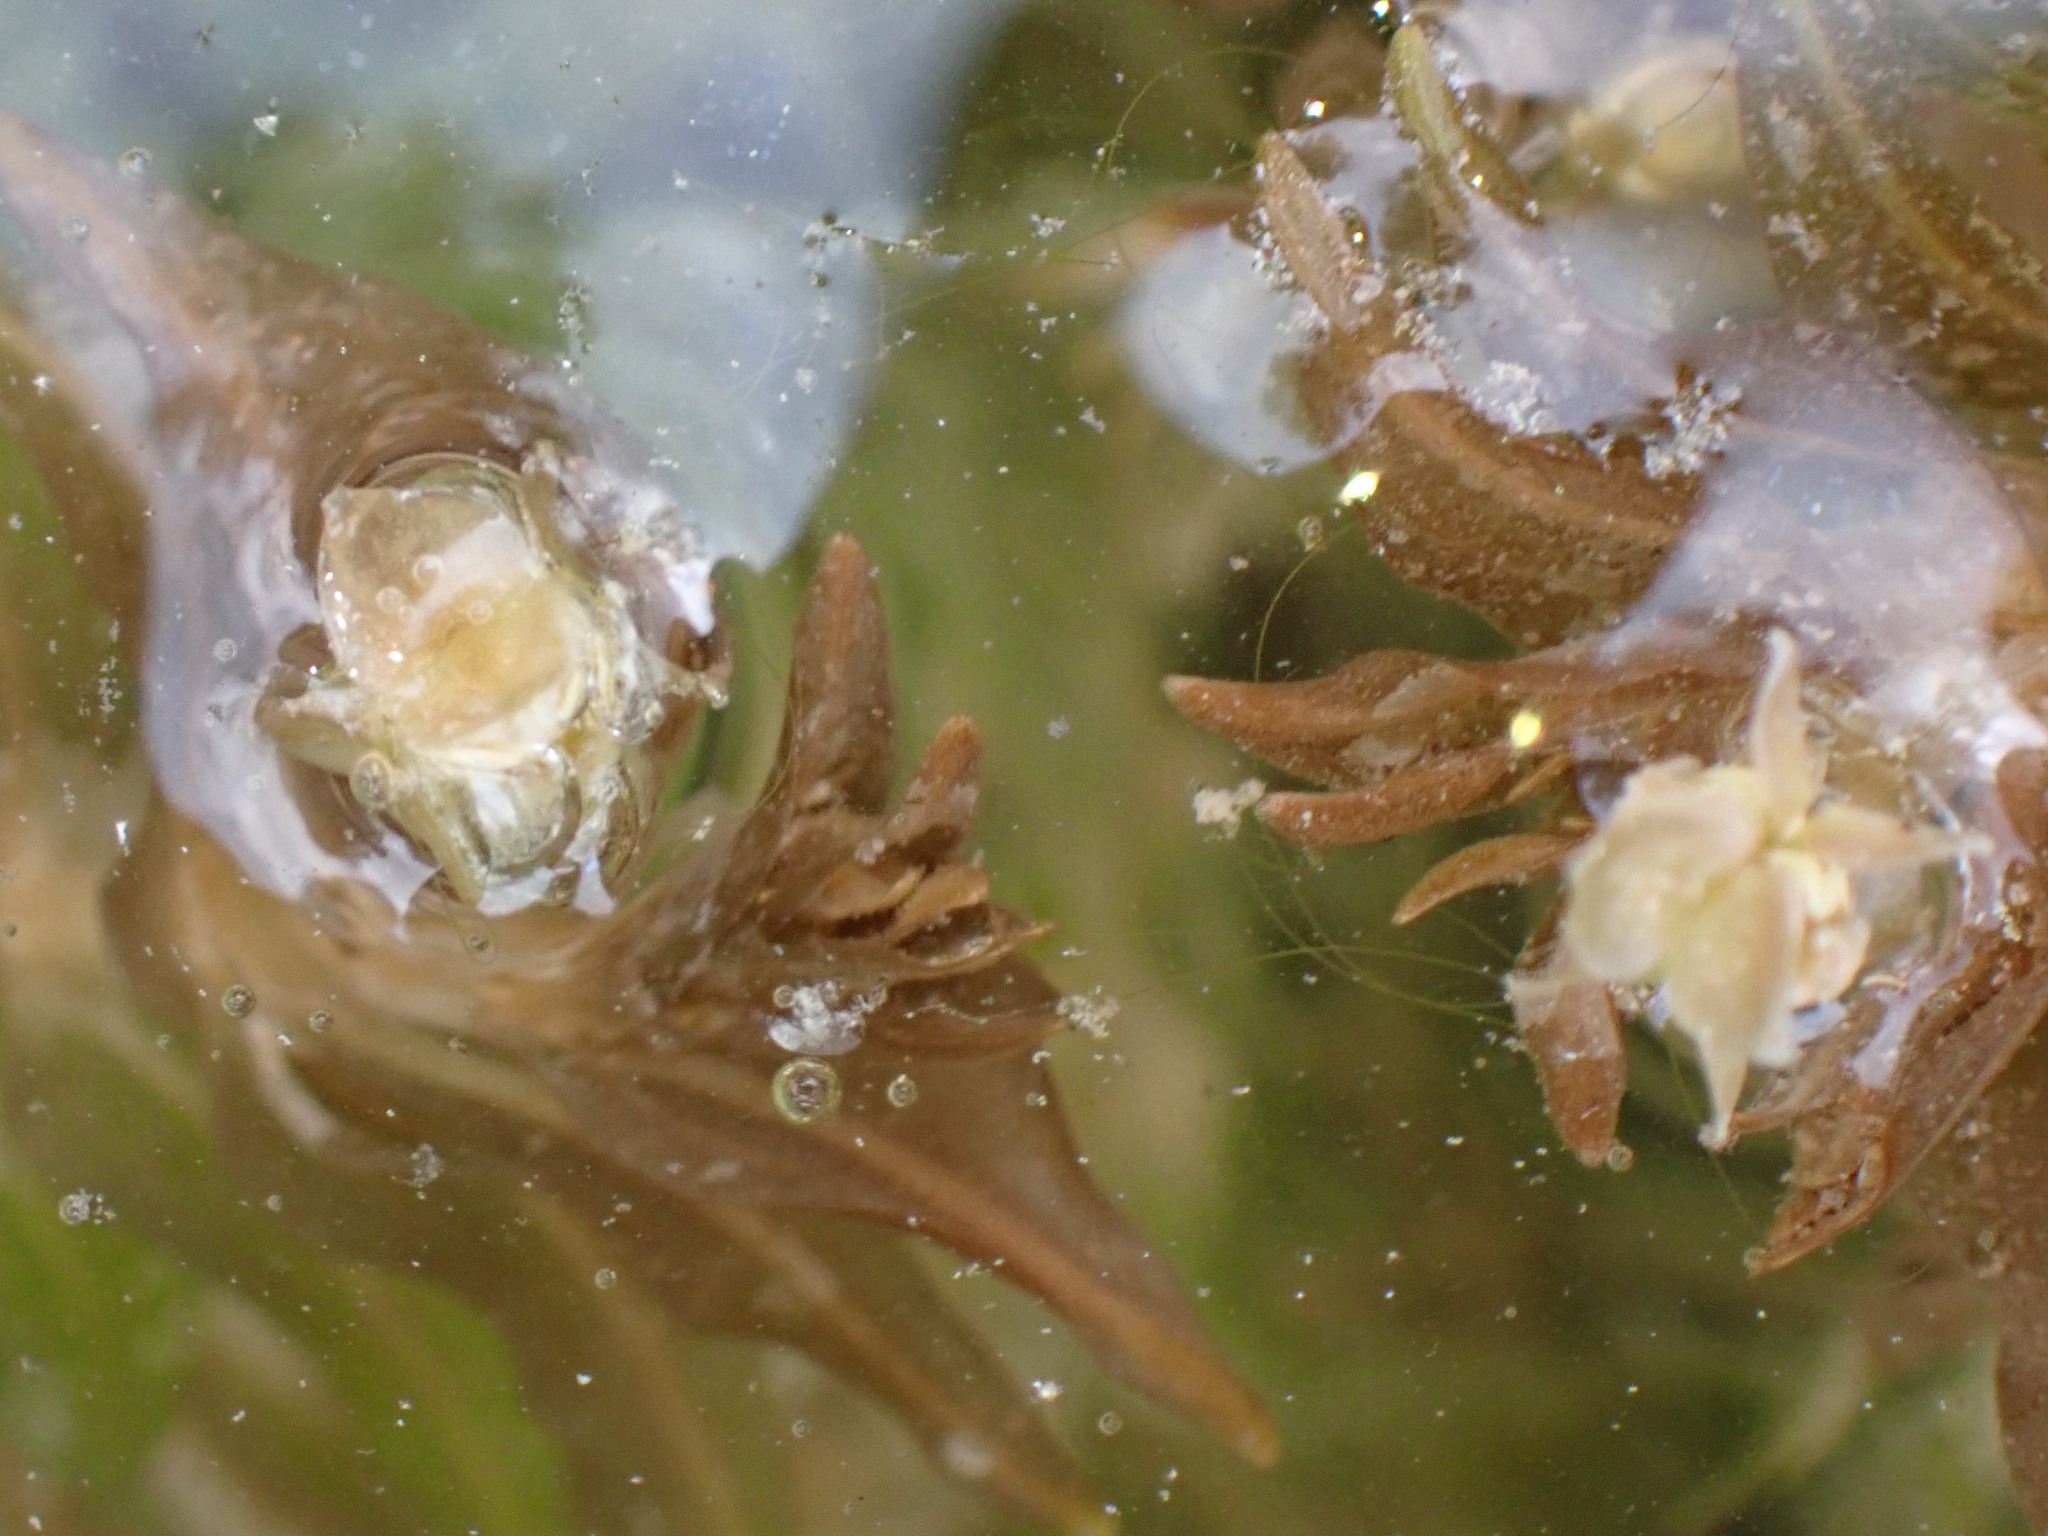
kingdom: Plantae
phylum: Tracheophyta
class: Liliopsida
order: Alismatales
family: Potamogetonaceae
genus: Groenlandia
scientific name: Groenlandia densa
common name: Opposite-leaved pondweed
